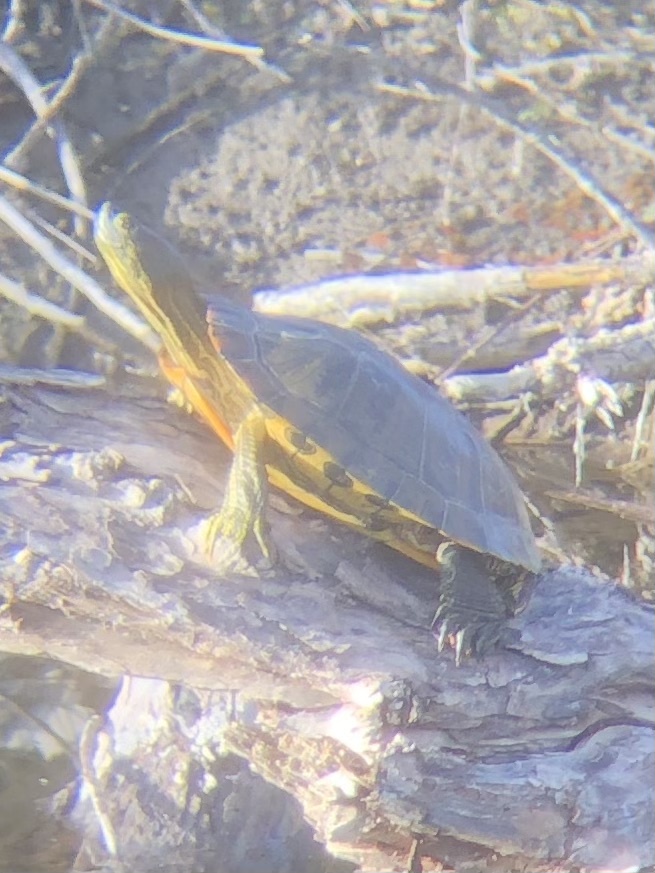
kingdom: Animalia
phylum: Chordata
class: Testudines
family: Emydidae
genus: Trachemys
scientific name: Trachemys scripta
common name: Slider
